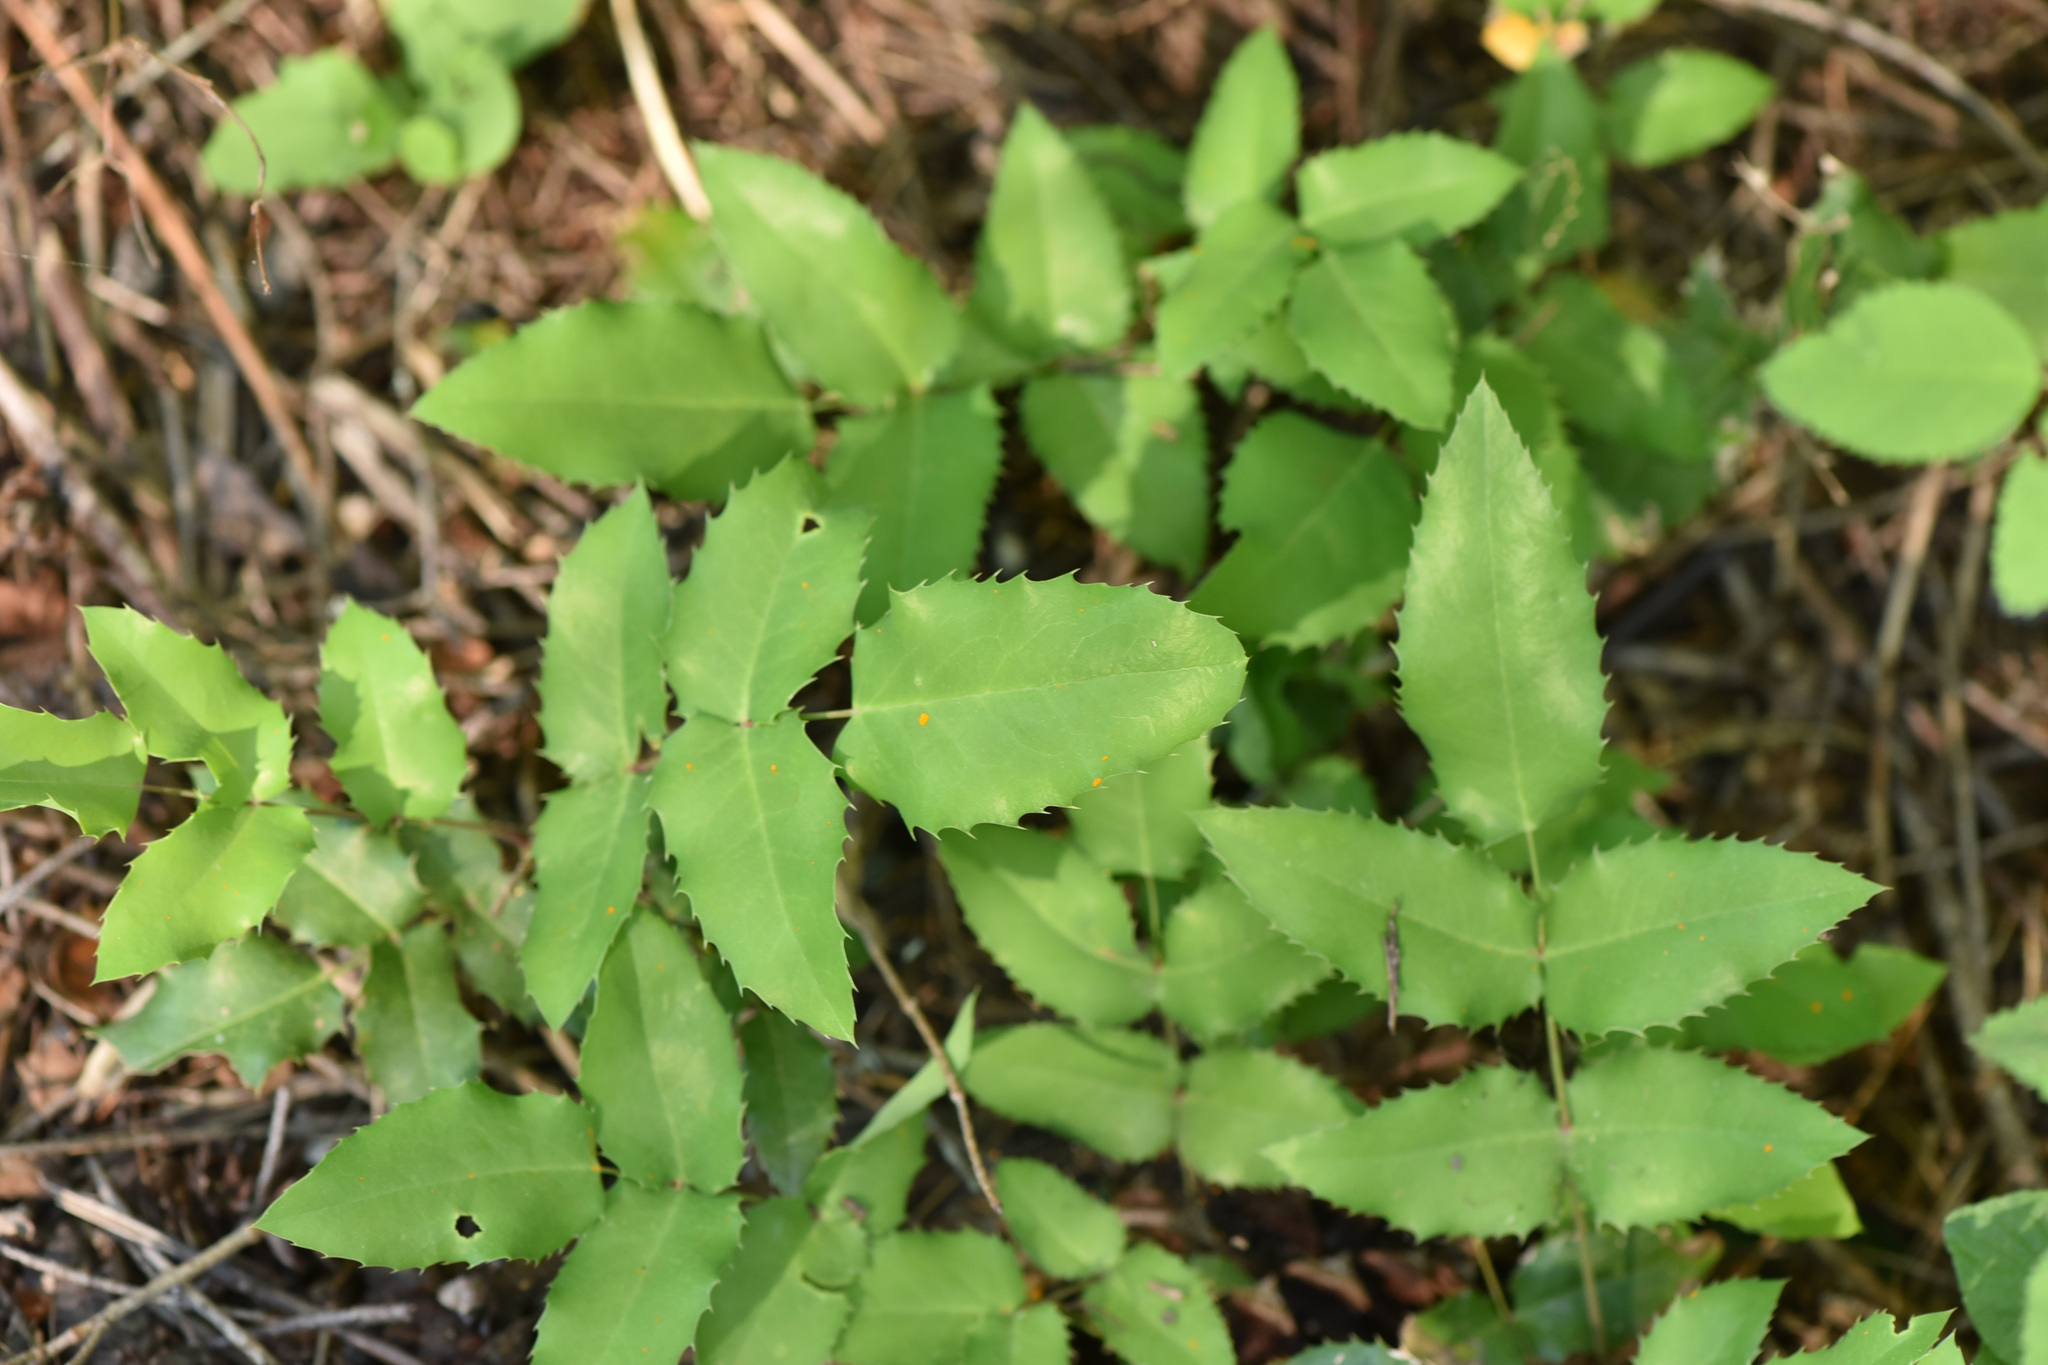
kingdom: Plantae
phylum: Tracheophyta
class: Magnoliopsida
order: Ranunculales
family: Berberidaceae
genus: Mahonia
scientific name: Mahonia repens
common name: Creeping oregon-grape
